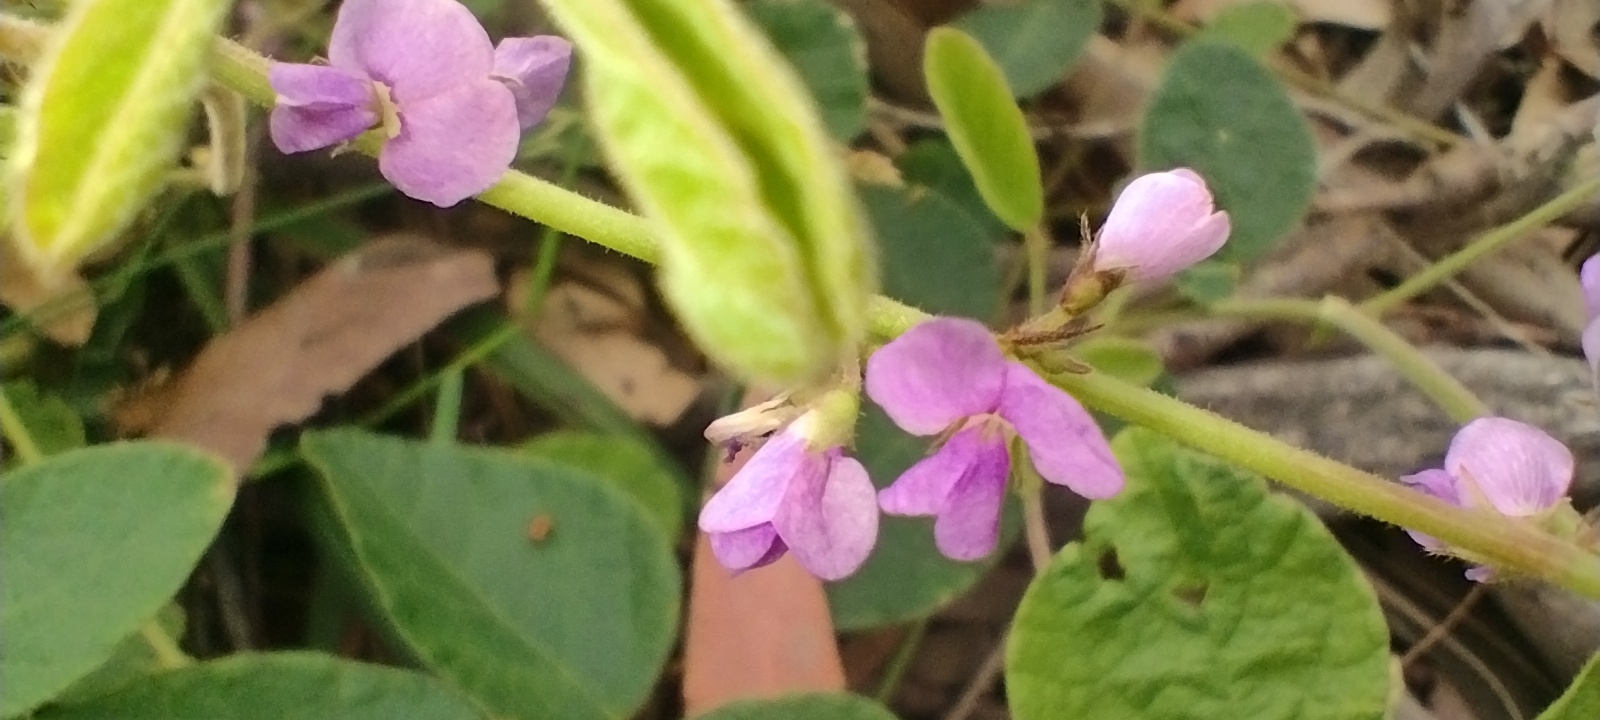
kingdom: Plantae
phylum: Tracheophyta
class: Magnoliopsida
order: Fabales
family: Fabaceae
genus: Maekawaea
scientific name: Maekawaea rhytidophylla
